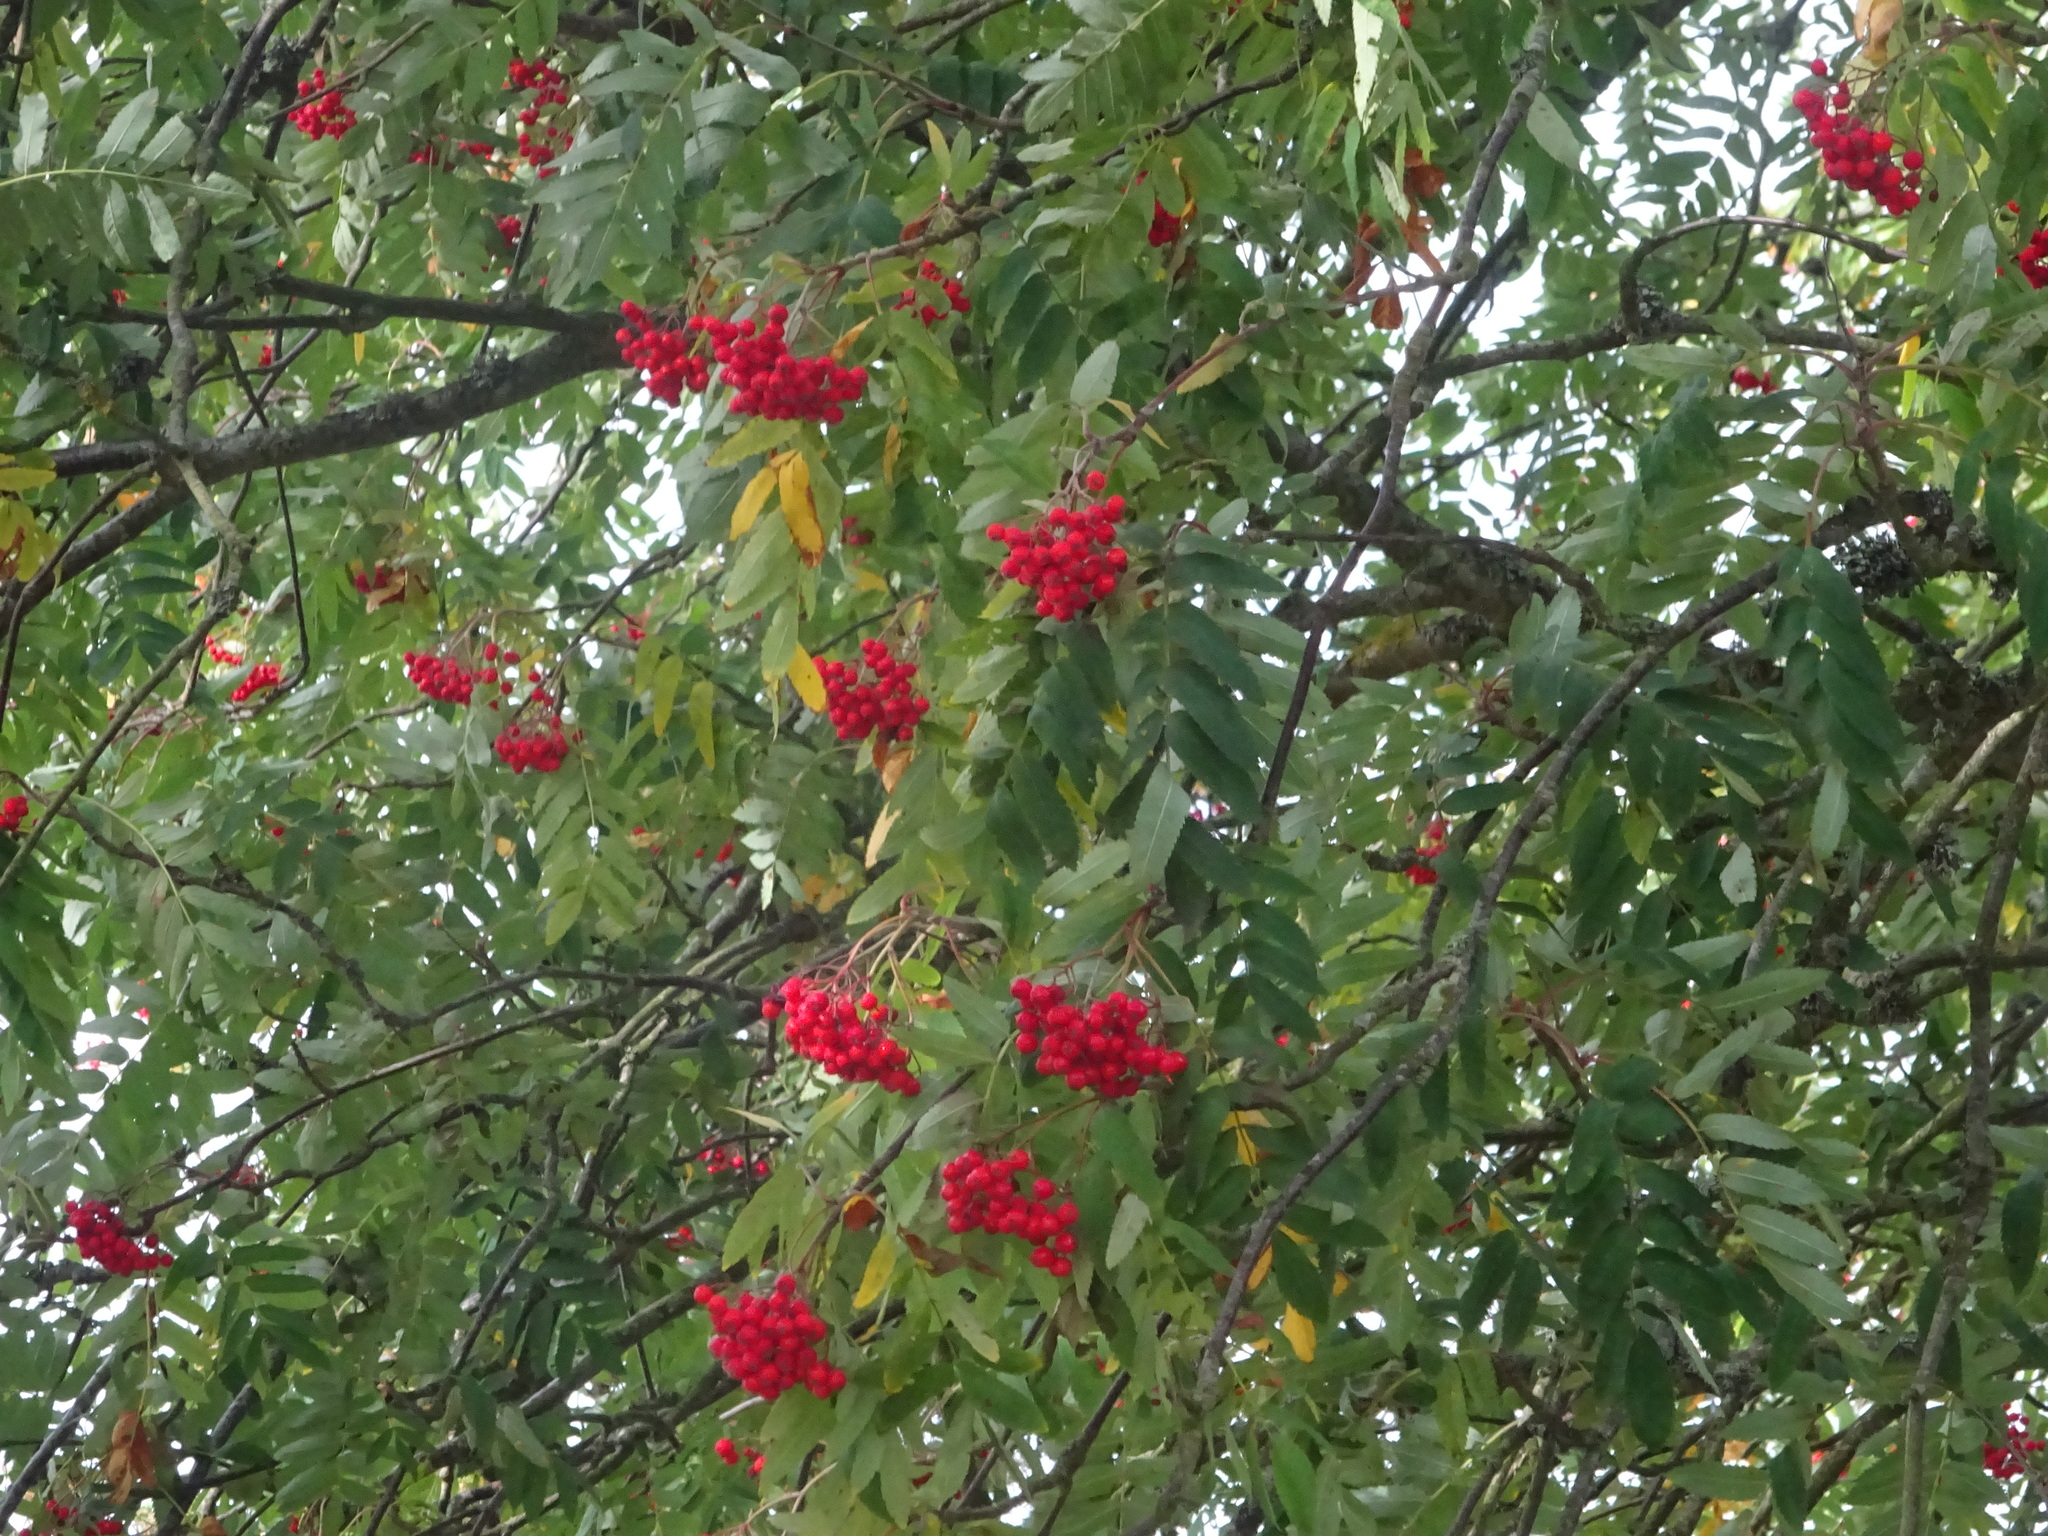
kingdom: Plantae
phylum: Tracheophyta
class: Magnoliopsida
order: Rosales
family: Rosaceae
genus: Sorbus
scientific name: Sorbus aucuparia
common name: Rowan
